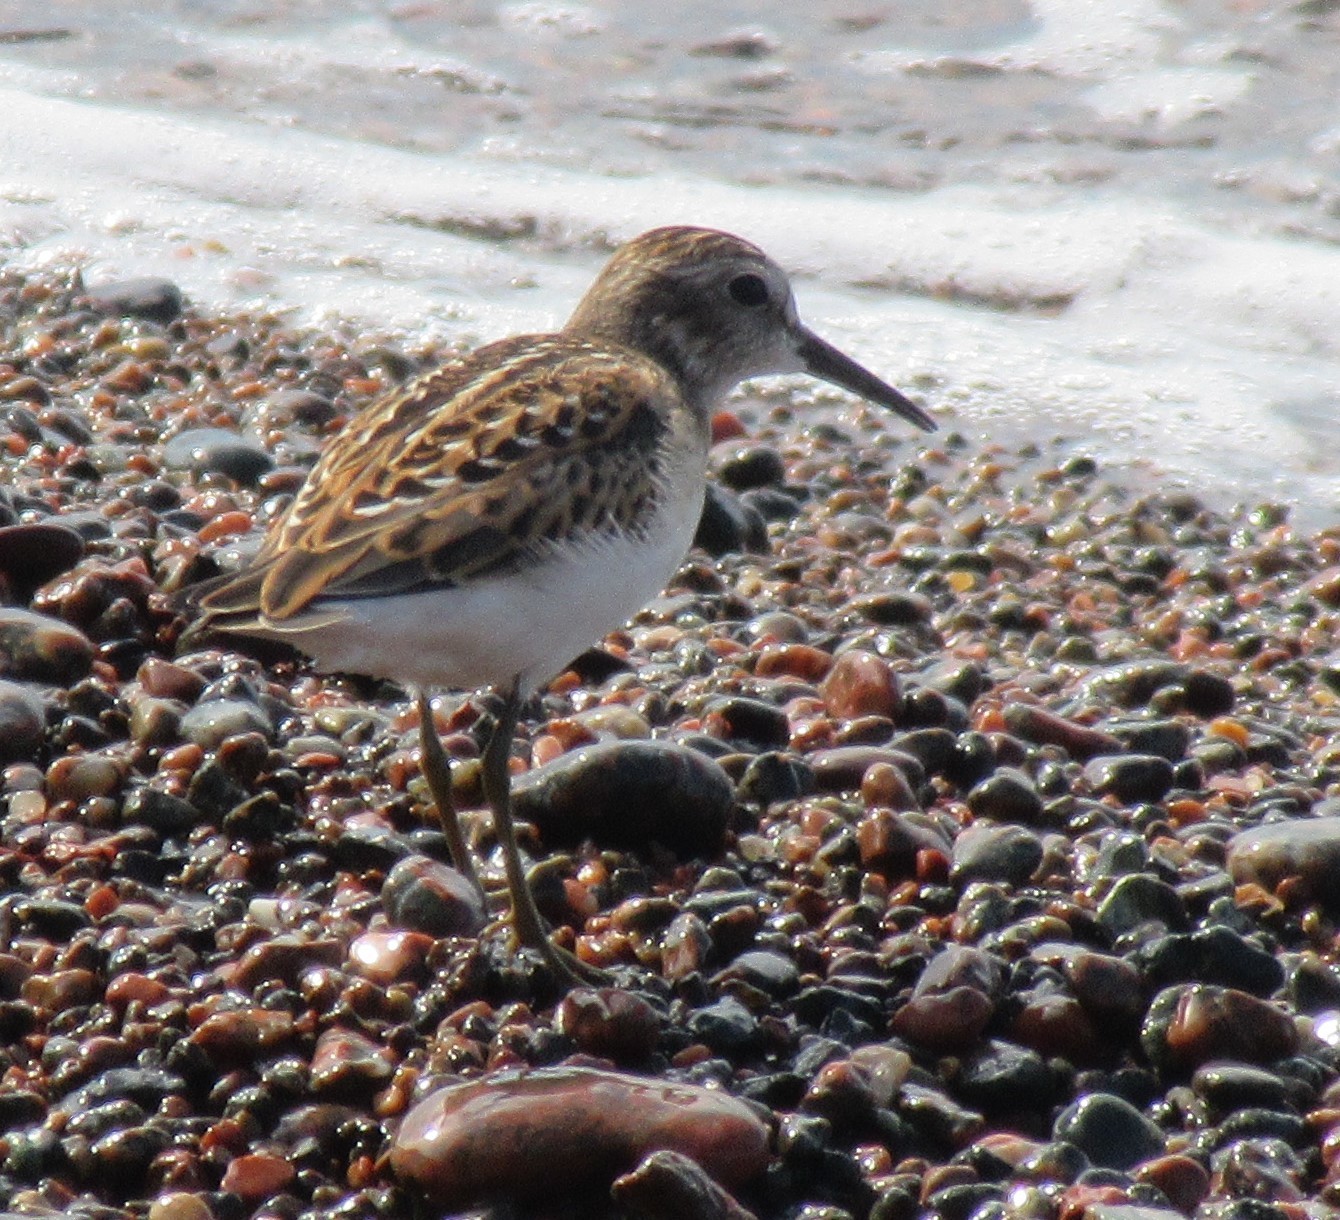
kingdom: Animalia
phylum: Chordata
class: Aves
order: Charadriiformes
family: Scolopacidae
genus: Calidris
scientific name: Calidris minutilla
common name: Least sandpiper
